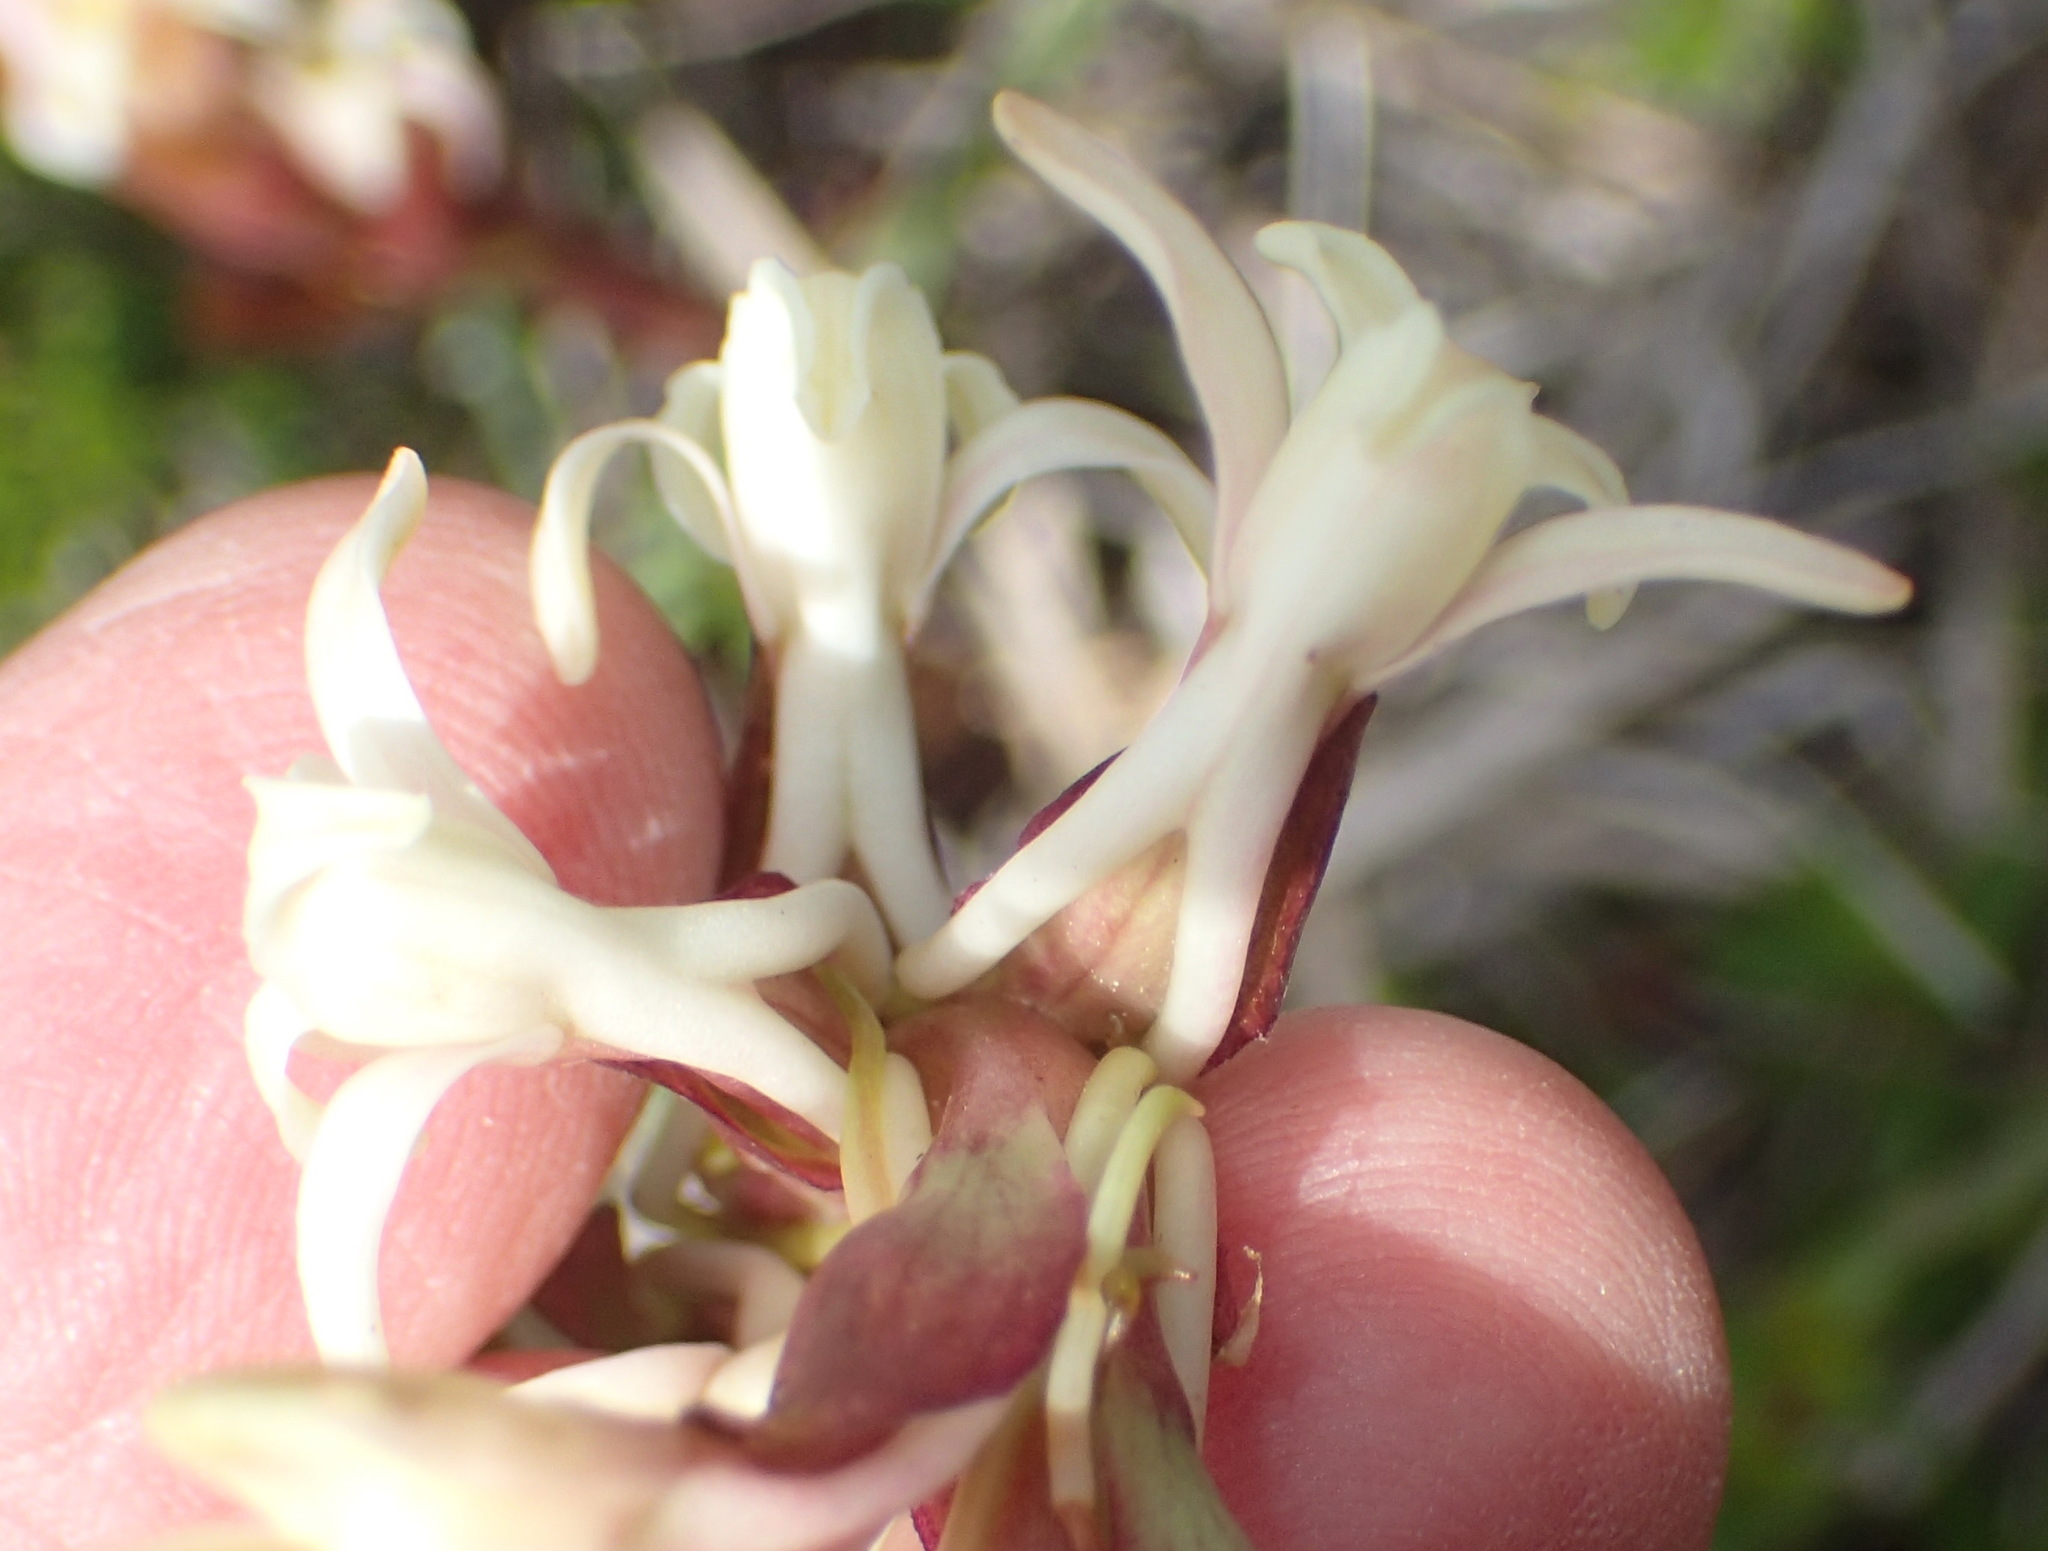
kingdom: Plantae
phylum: Tracheophyta
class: Liliopsida
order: Asparagales
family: Orchidaceae
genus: Satyrium
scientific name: Satyrium stenopetalum
